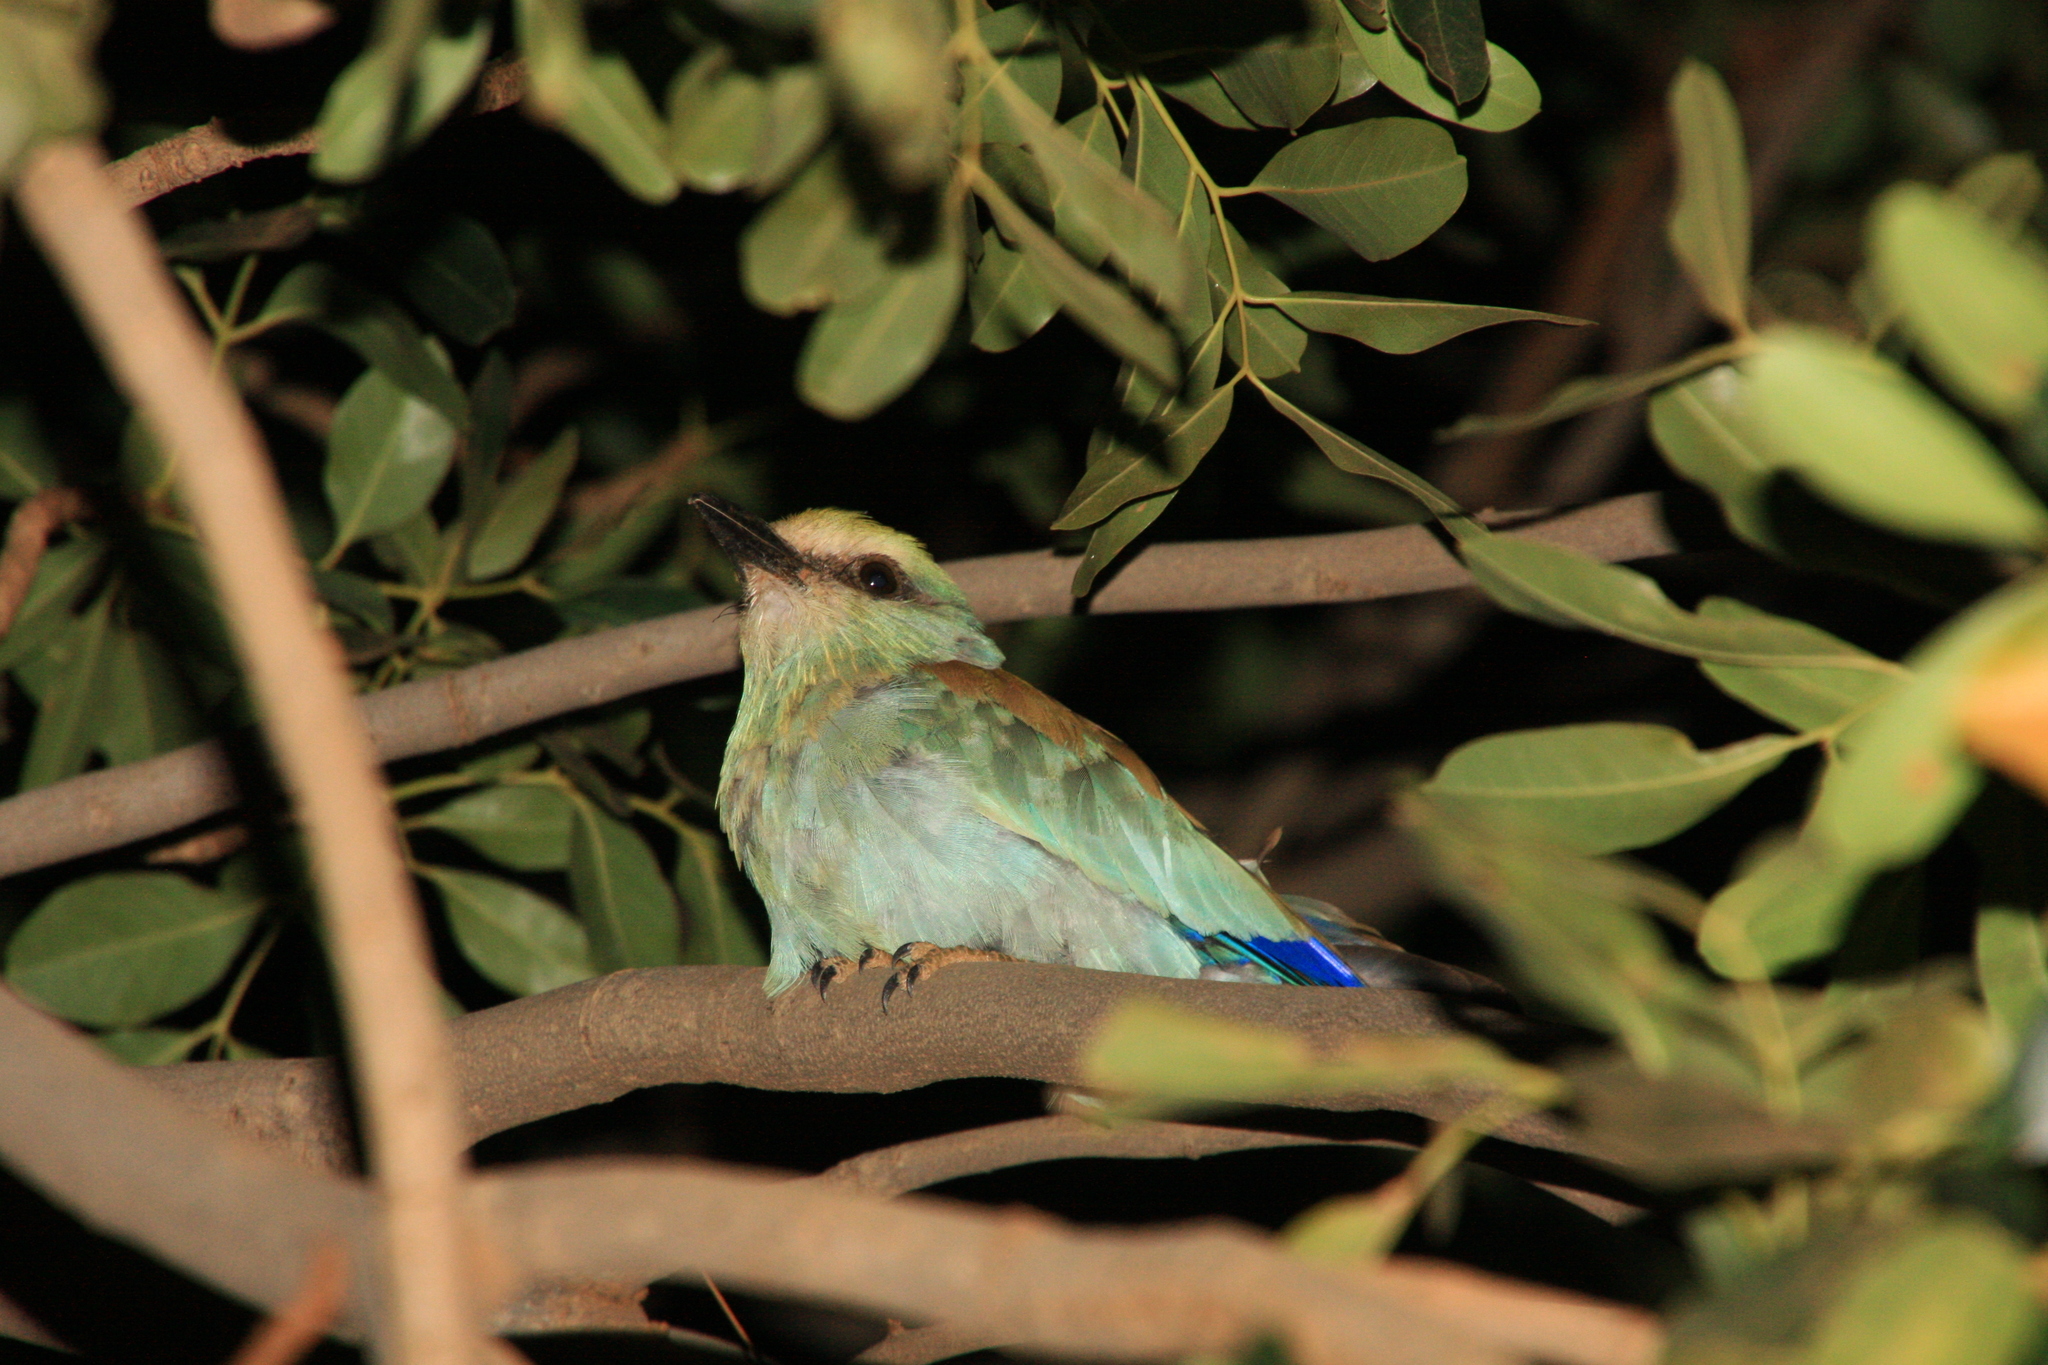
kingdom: Animalia
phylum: Chordata
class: Aves
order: Coraciiformes
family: Coraciidae
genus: Coracias
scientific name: Coracias garrulus
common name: European roller
